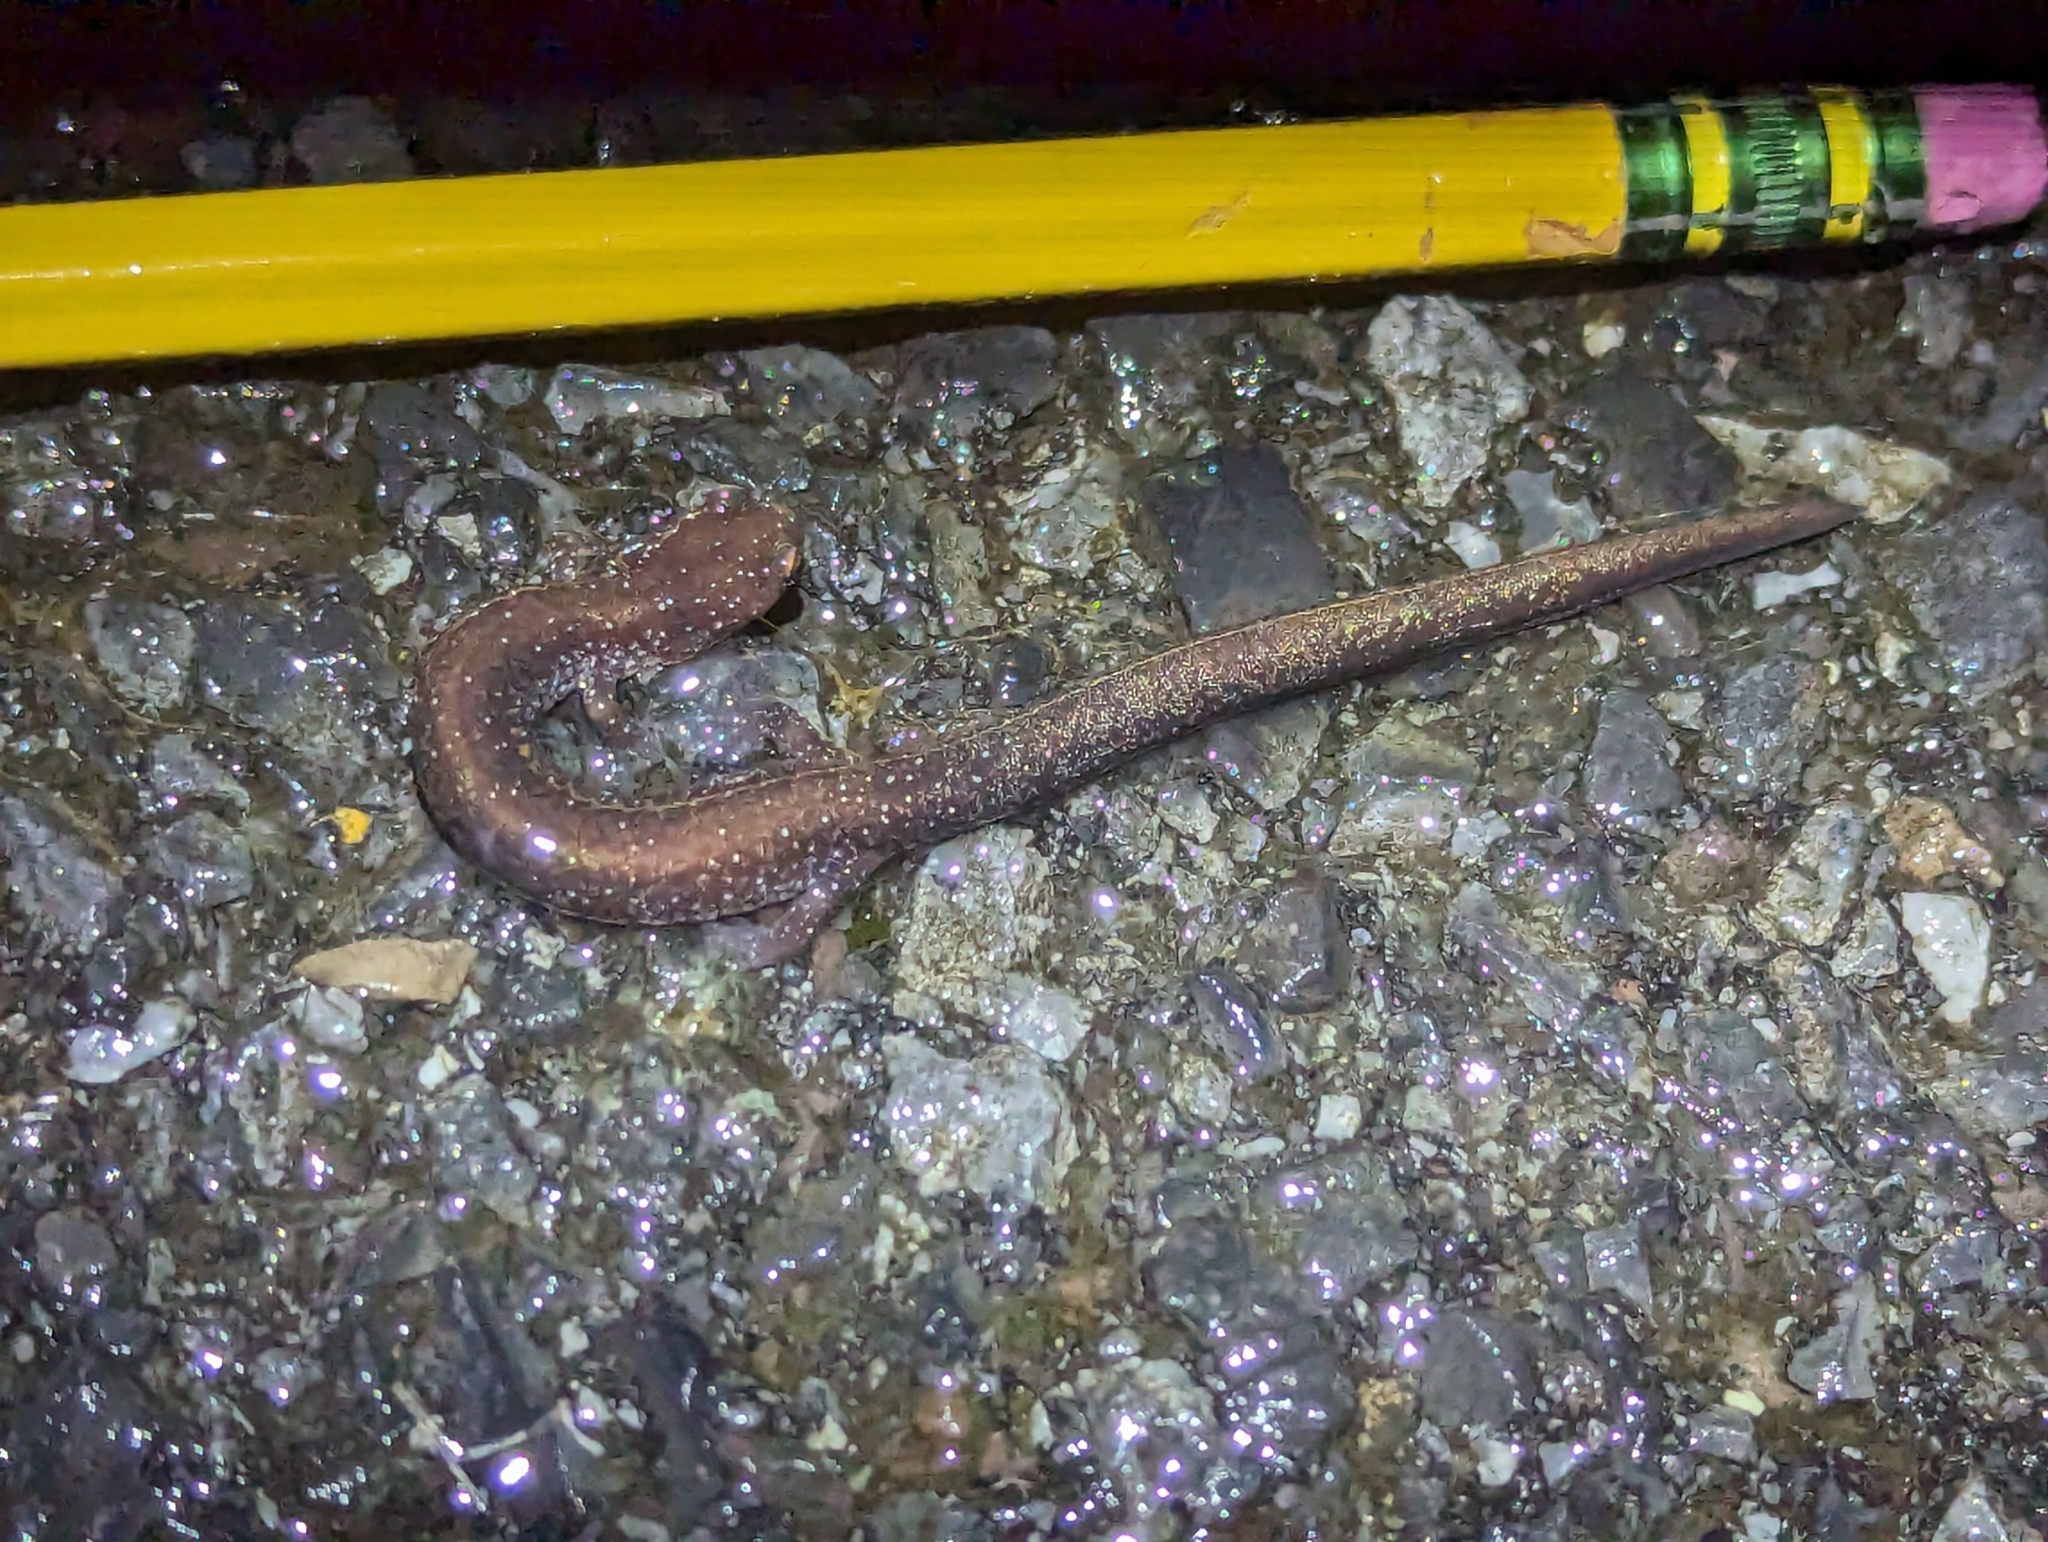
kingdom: Animalia
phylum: Chordata
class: Amphibia
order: Caudata
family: Plethodontidae
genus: Plethodon
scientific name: Plethodon cinereus
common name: Redback salamander
